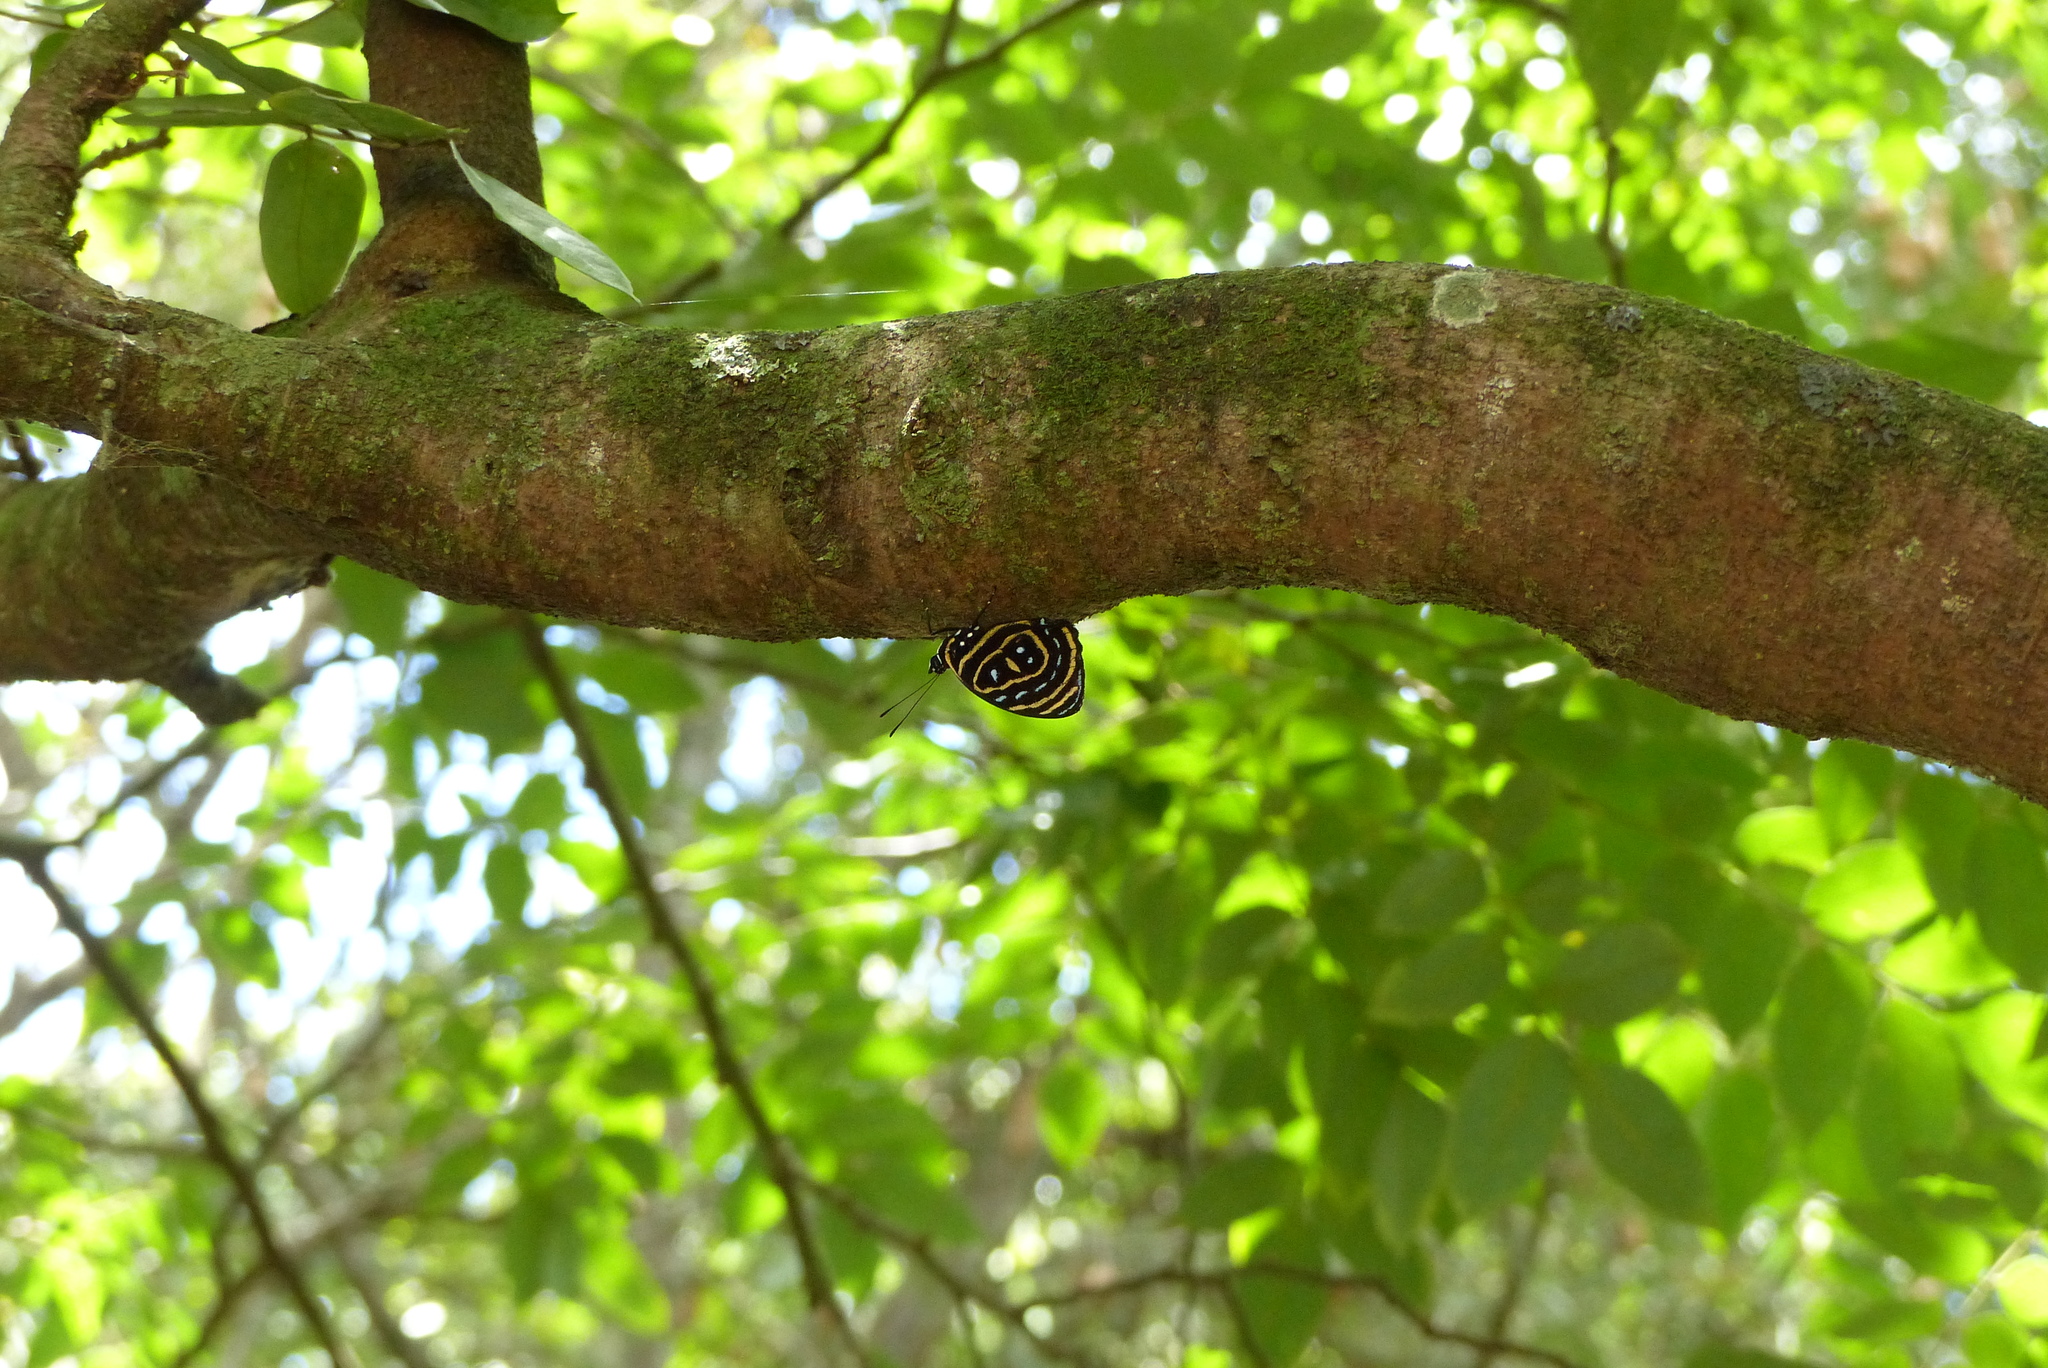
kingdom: Animalia
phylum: Arthropoda
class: Insecta
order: Lepidoptera
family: Nymphalidae
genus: Catagramma
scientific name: Catagramma astarte
